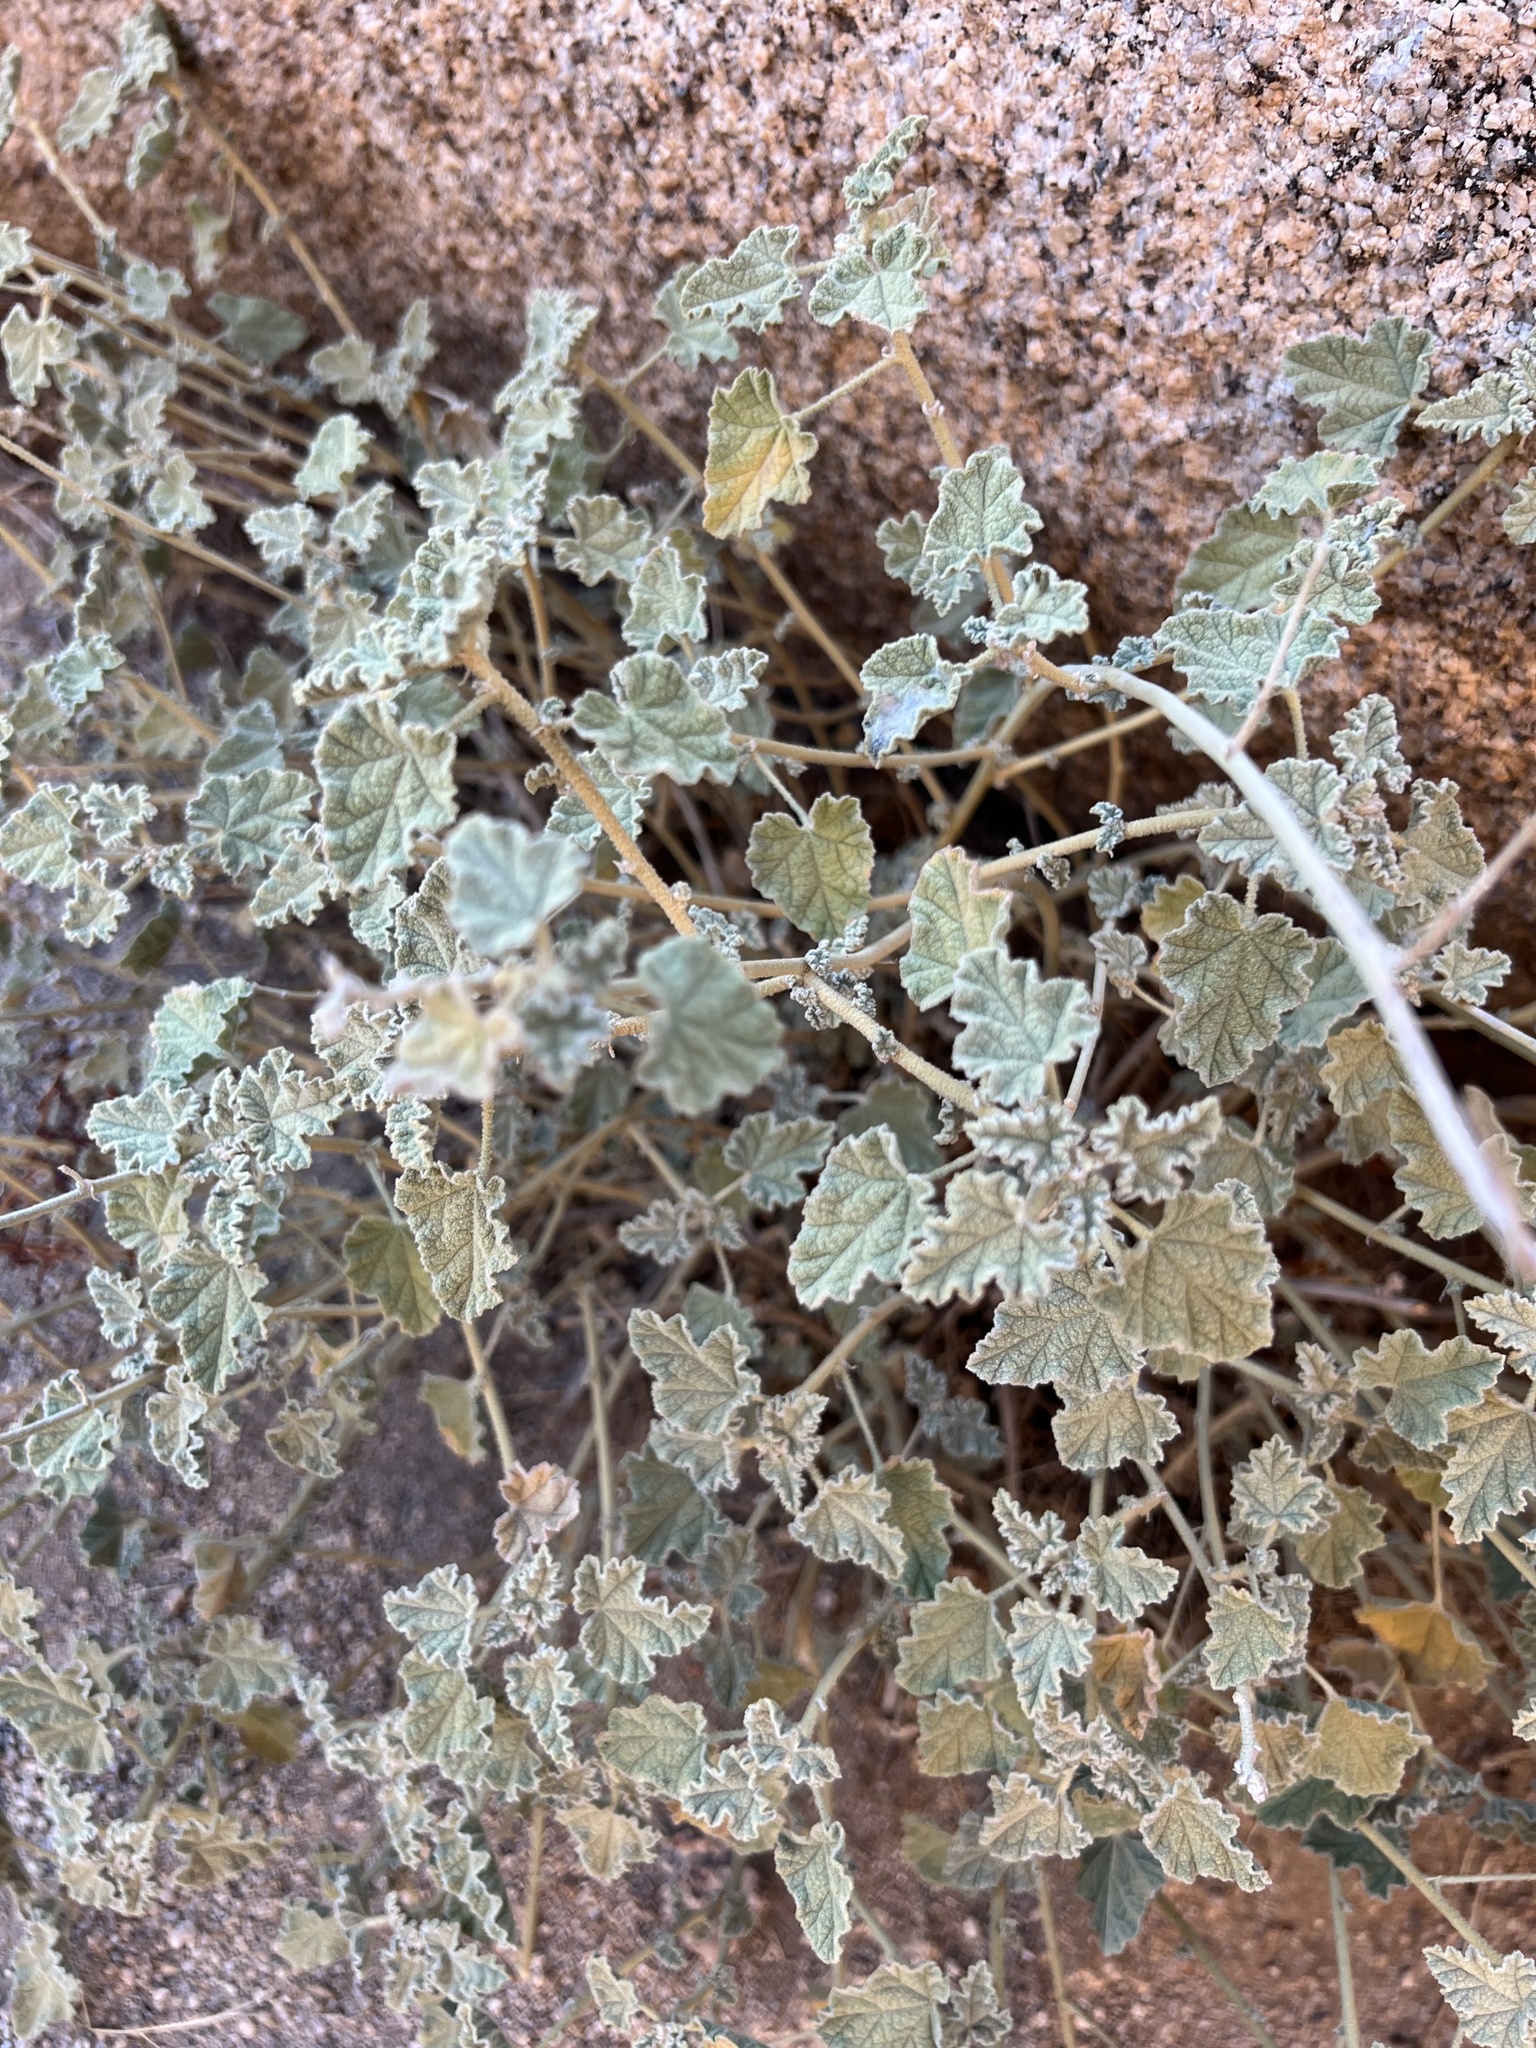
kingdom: Plantae
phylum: Tracheophyta
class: Magnoliopsida
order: Malvales
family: Malvaceae
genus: Sphaeralcea
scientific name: Sphaeralcea ambigua
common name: Apricot globe-mallow
